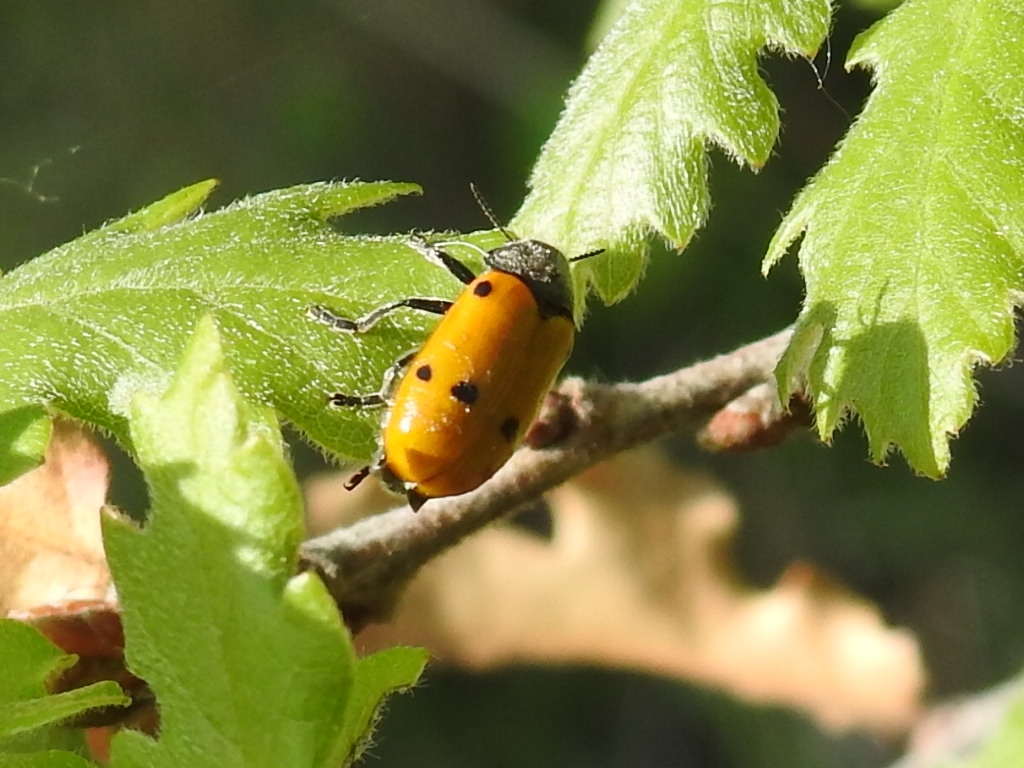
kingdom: Animalia
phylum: Arthropoda
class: Insecta
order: Coleoptera
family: Chrysomelidae
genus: Lachnaia
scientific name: Lachnaia italica
